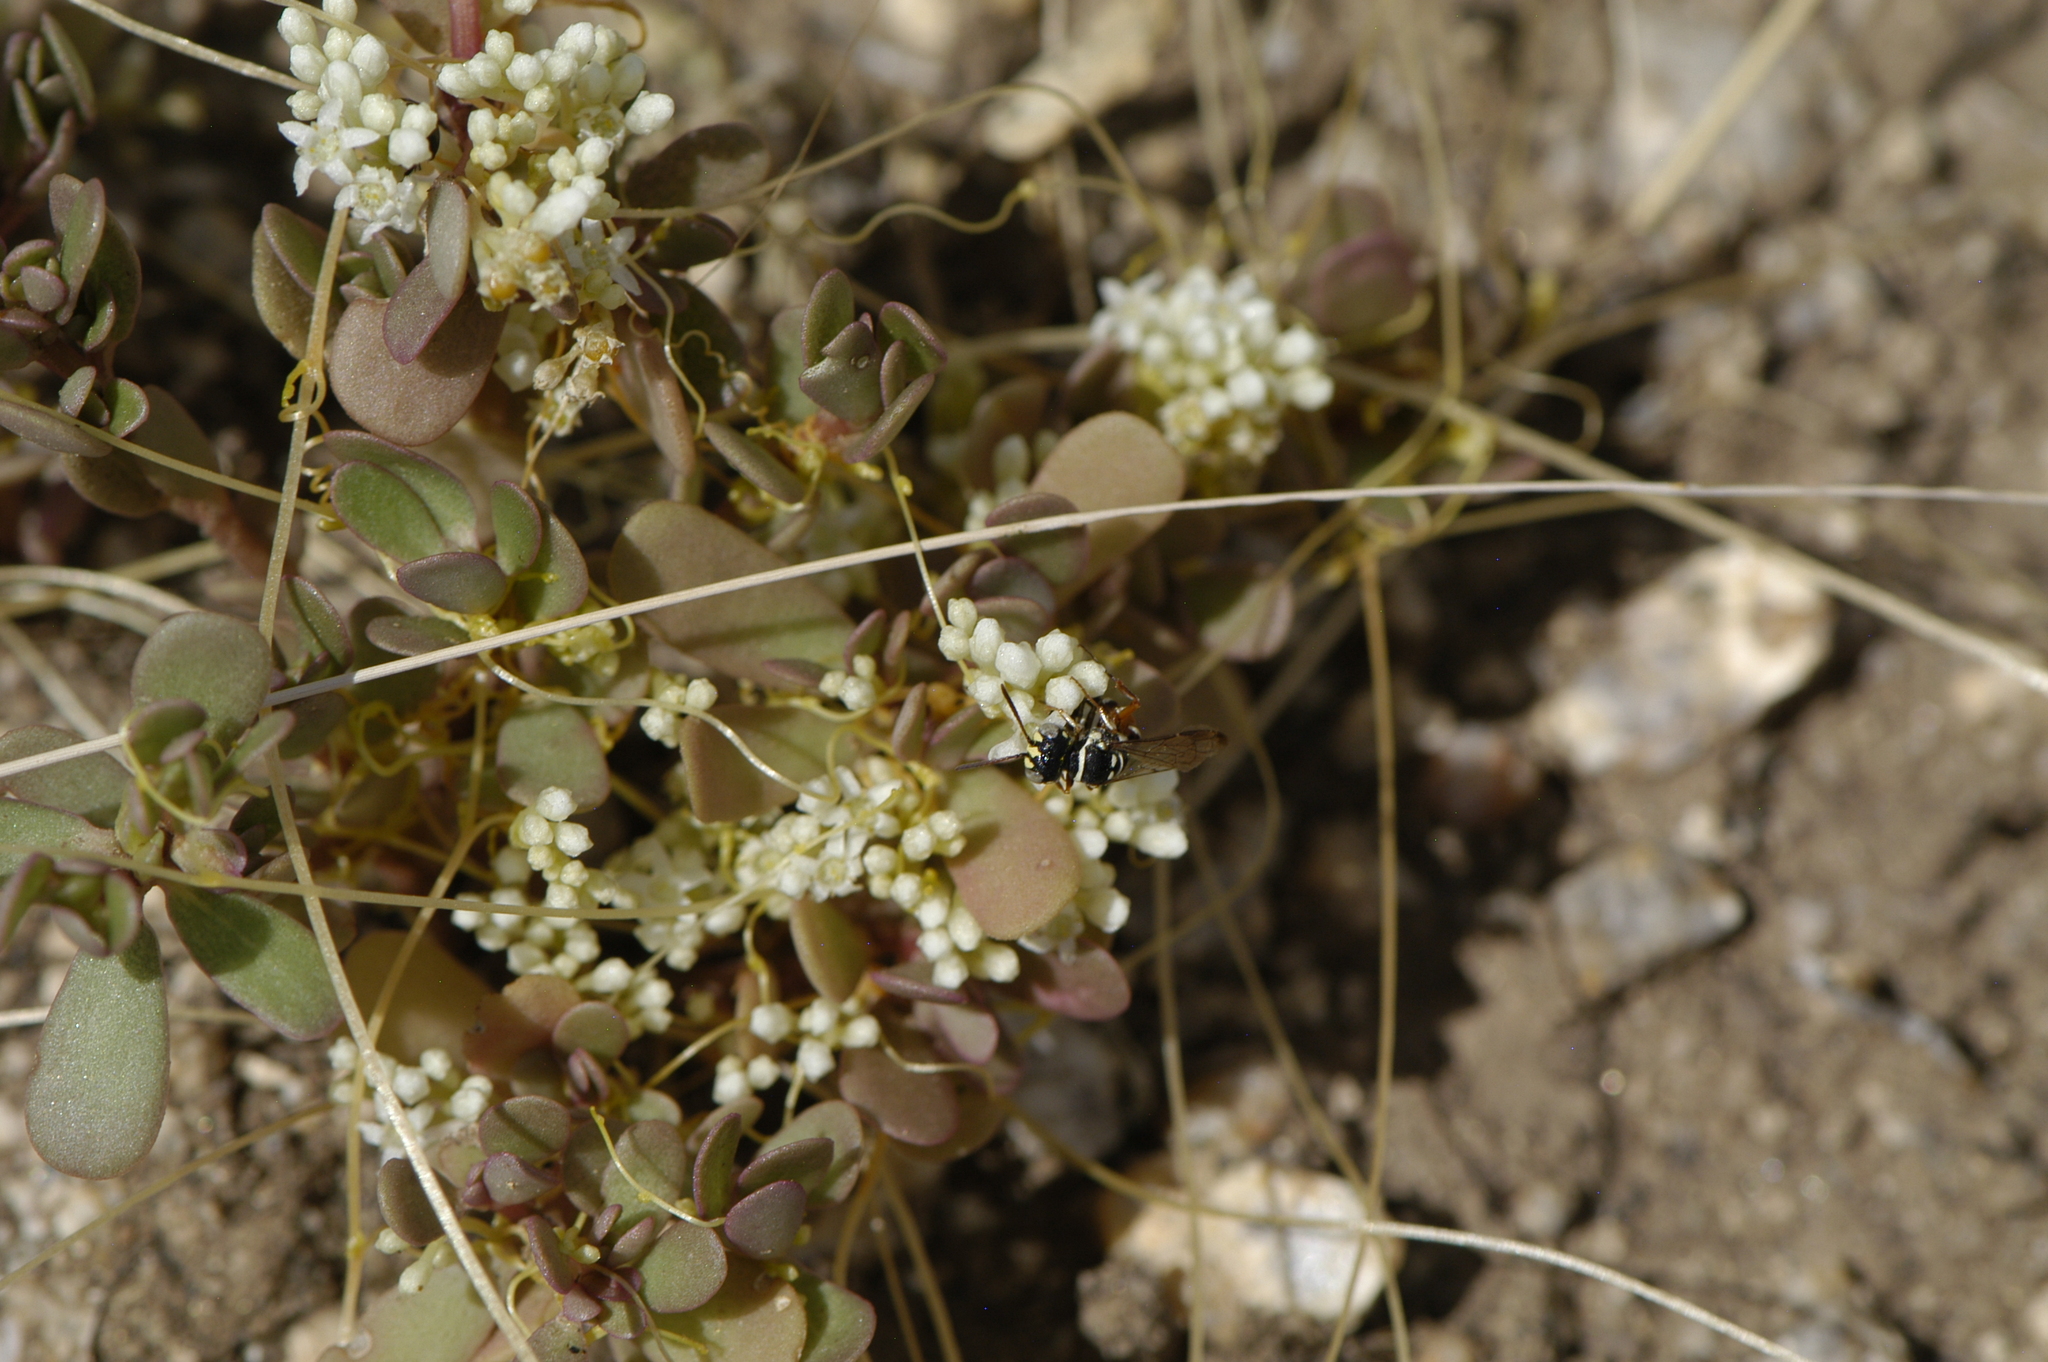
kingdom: Plantae
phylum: Tracheophyta
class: Magnoliopsida
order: Solanales
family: Convolvulaceae
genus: Cuscuta
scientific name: Cuscuta
